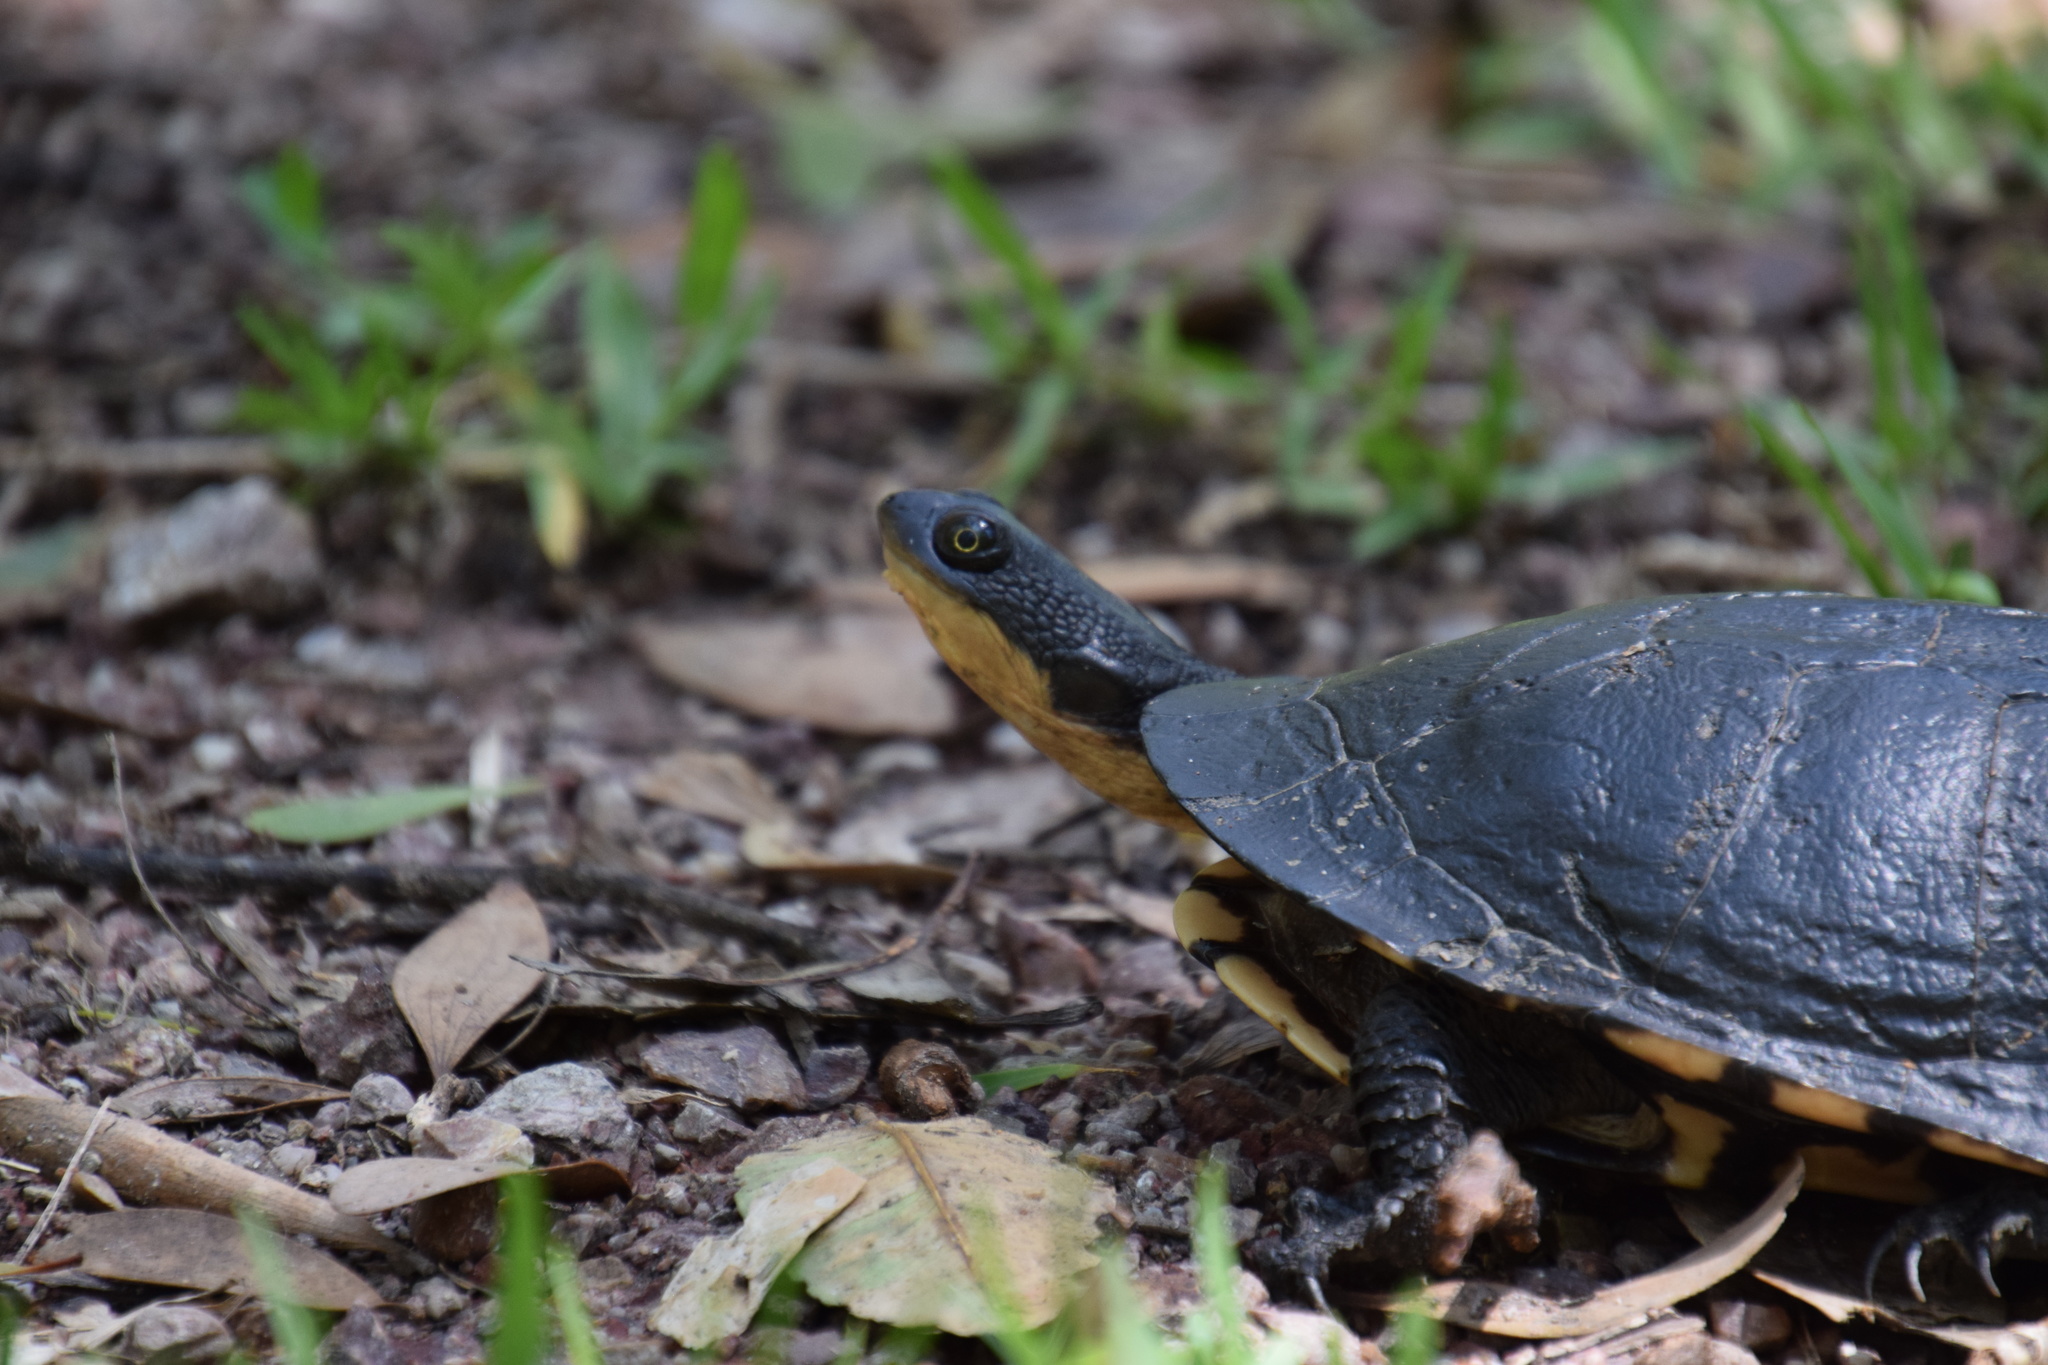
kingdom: Animalia
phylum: Chordata
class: Testudines
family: Chelidae
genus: Chelodina
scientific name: Chelodina longicollis
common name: Eastern snake-necked turtle
